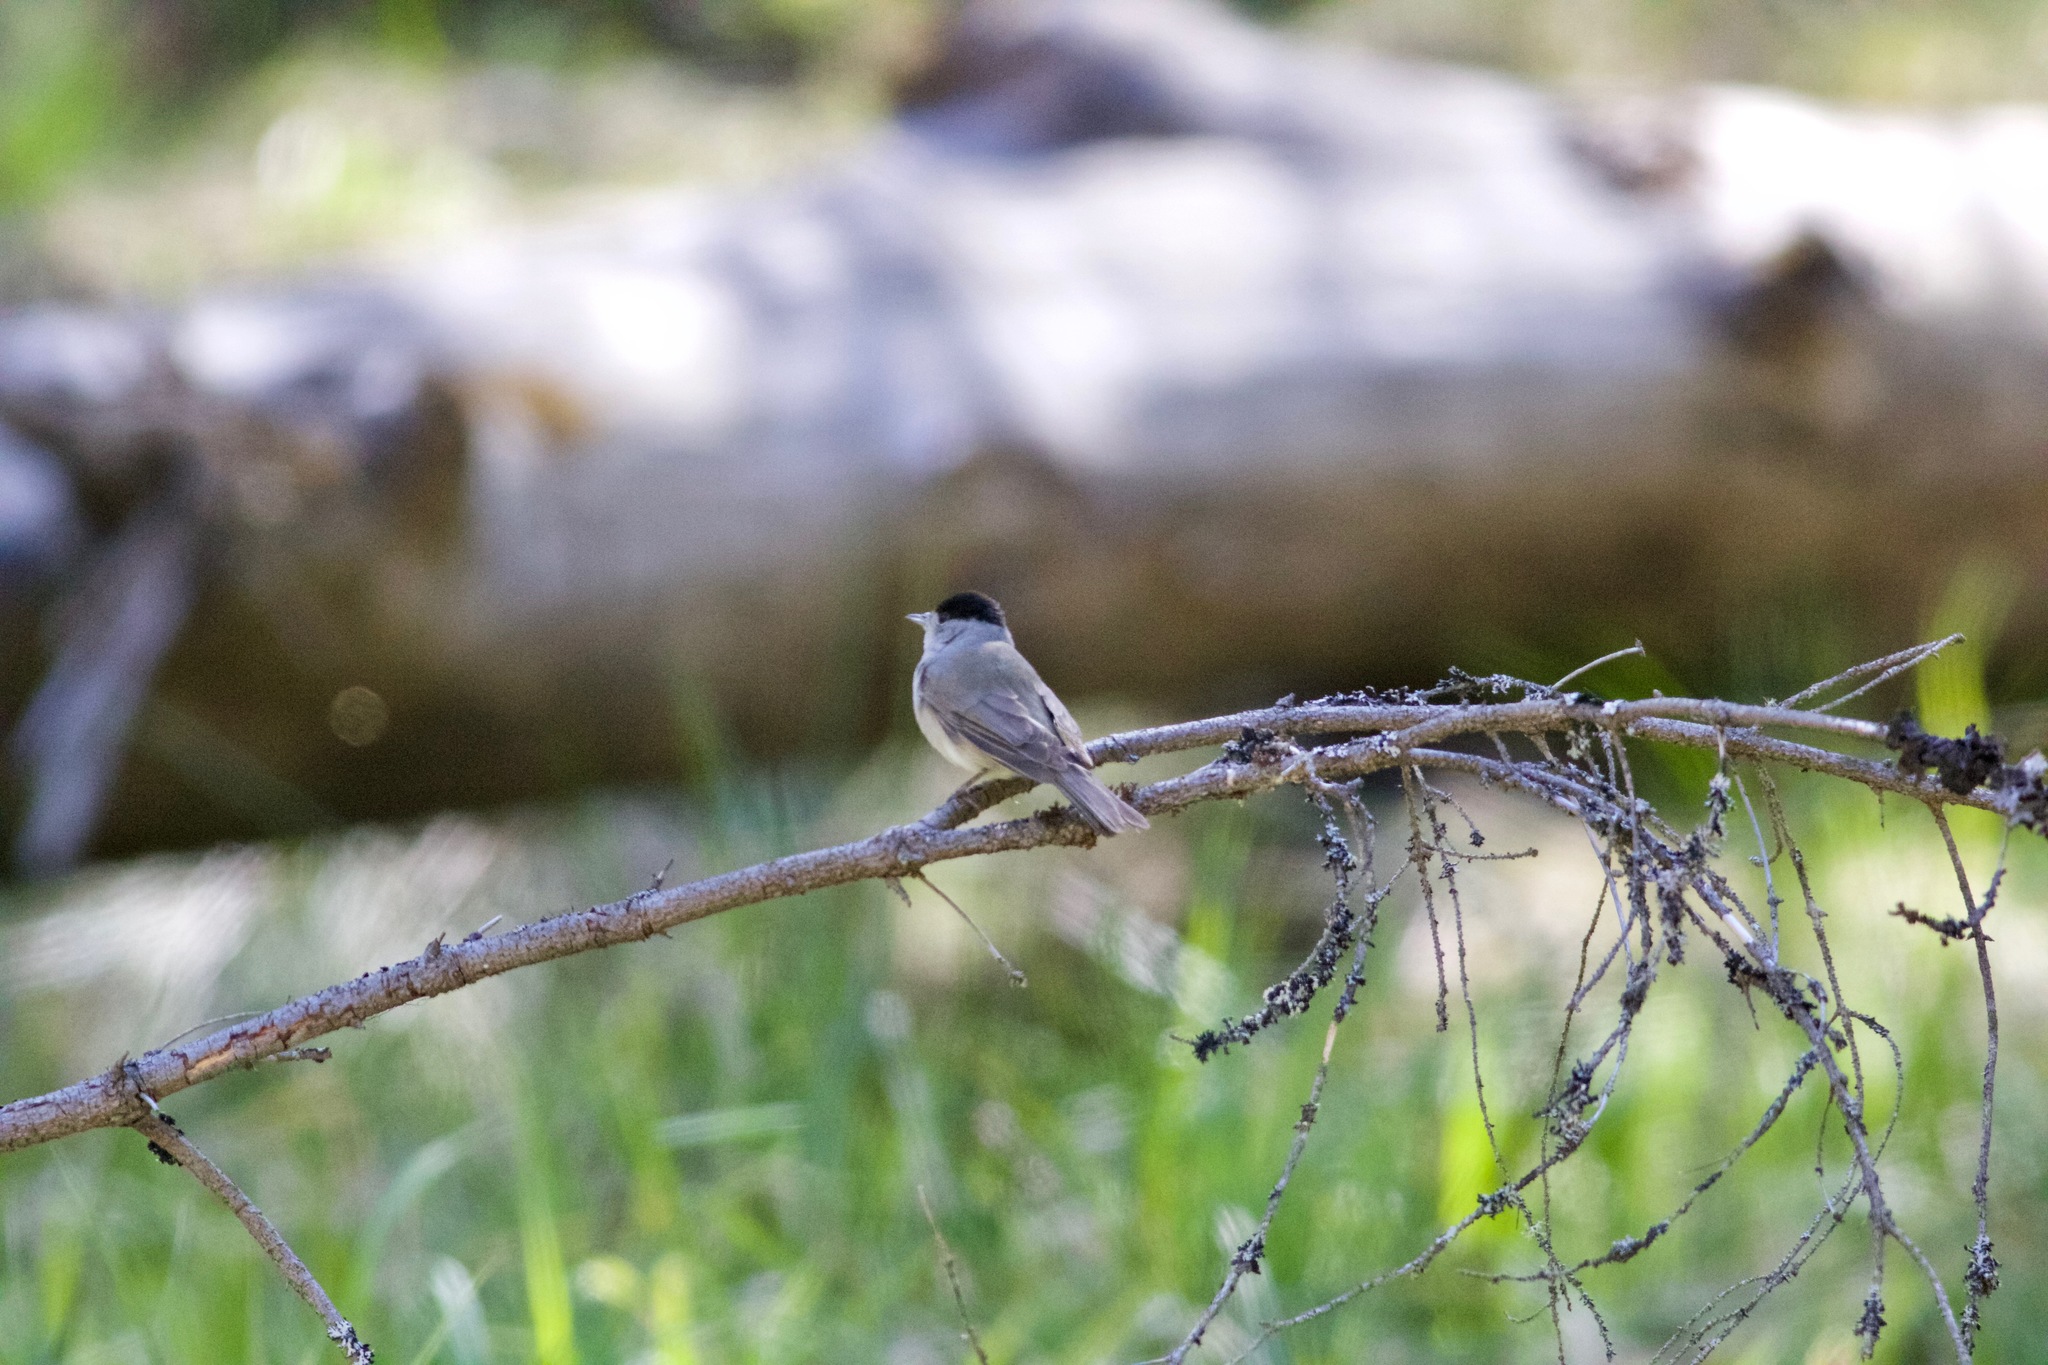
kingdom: Animalia
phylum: Chordata
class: Aves
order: Passeriformes
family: Sylviidae
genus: Sylvia
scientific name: Sylvia atricapilla
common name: Eurasian blackcap
